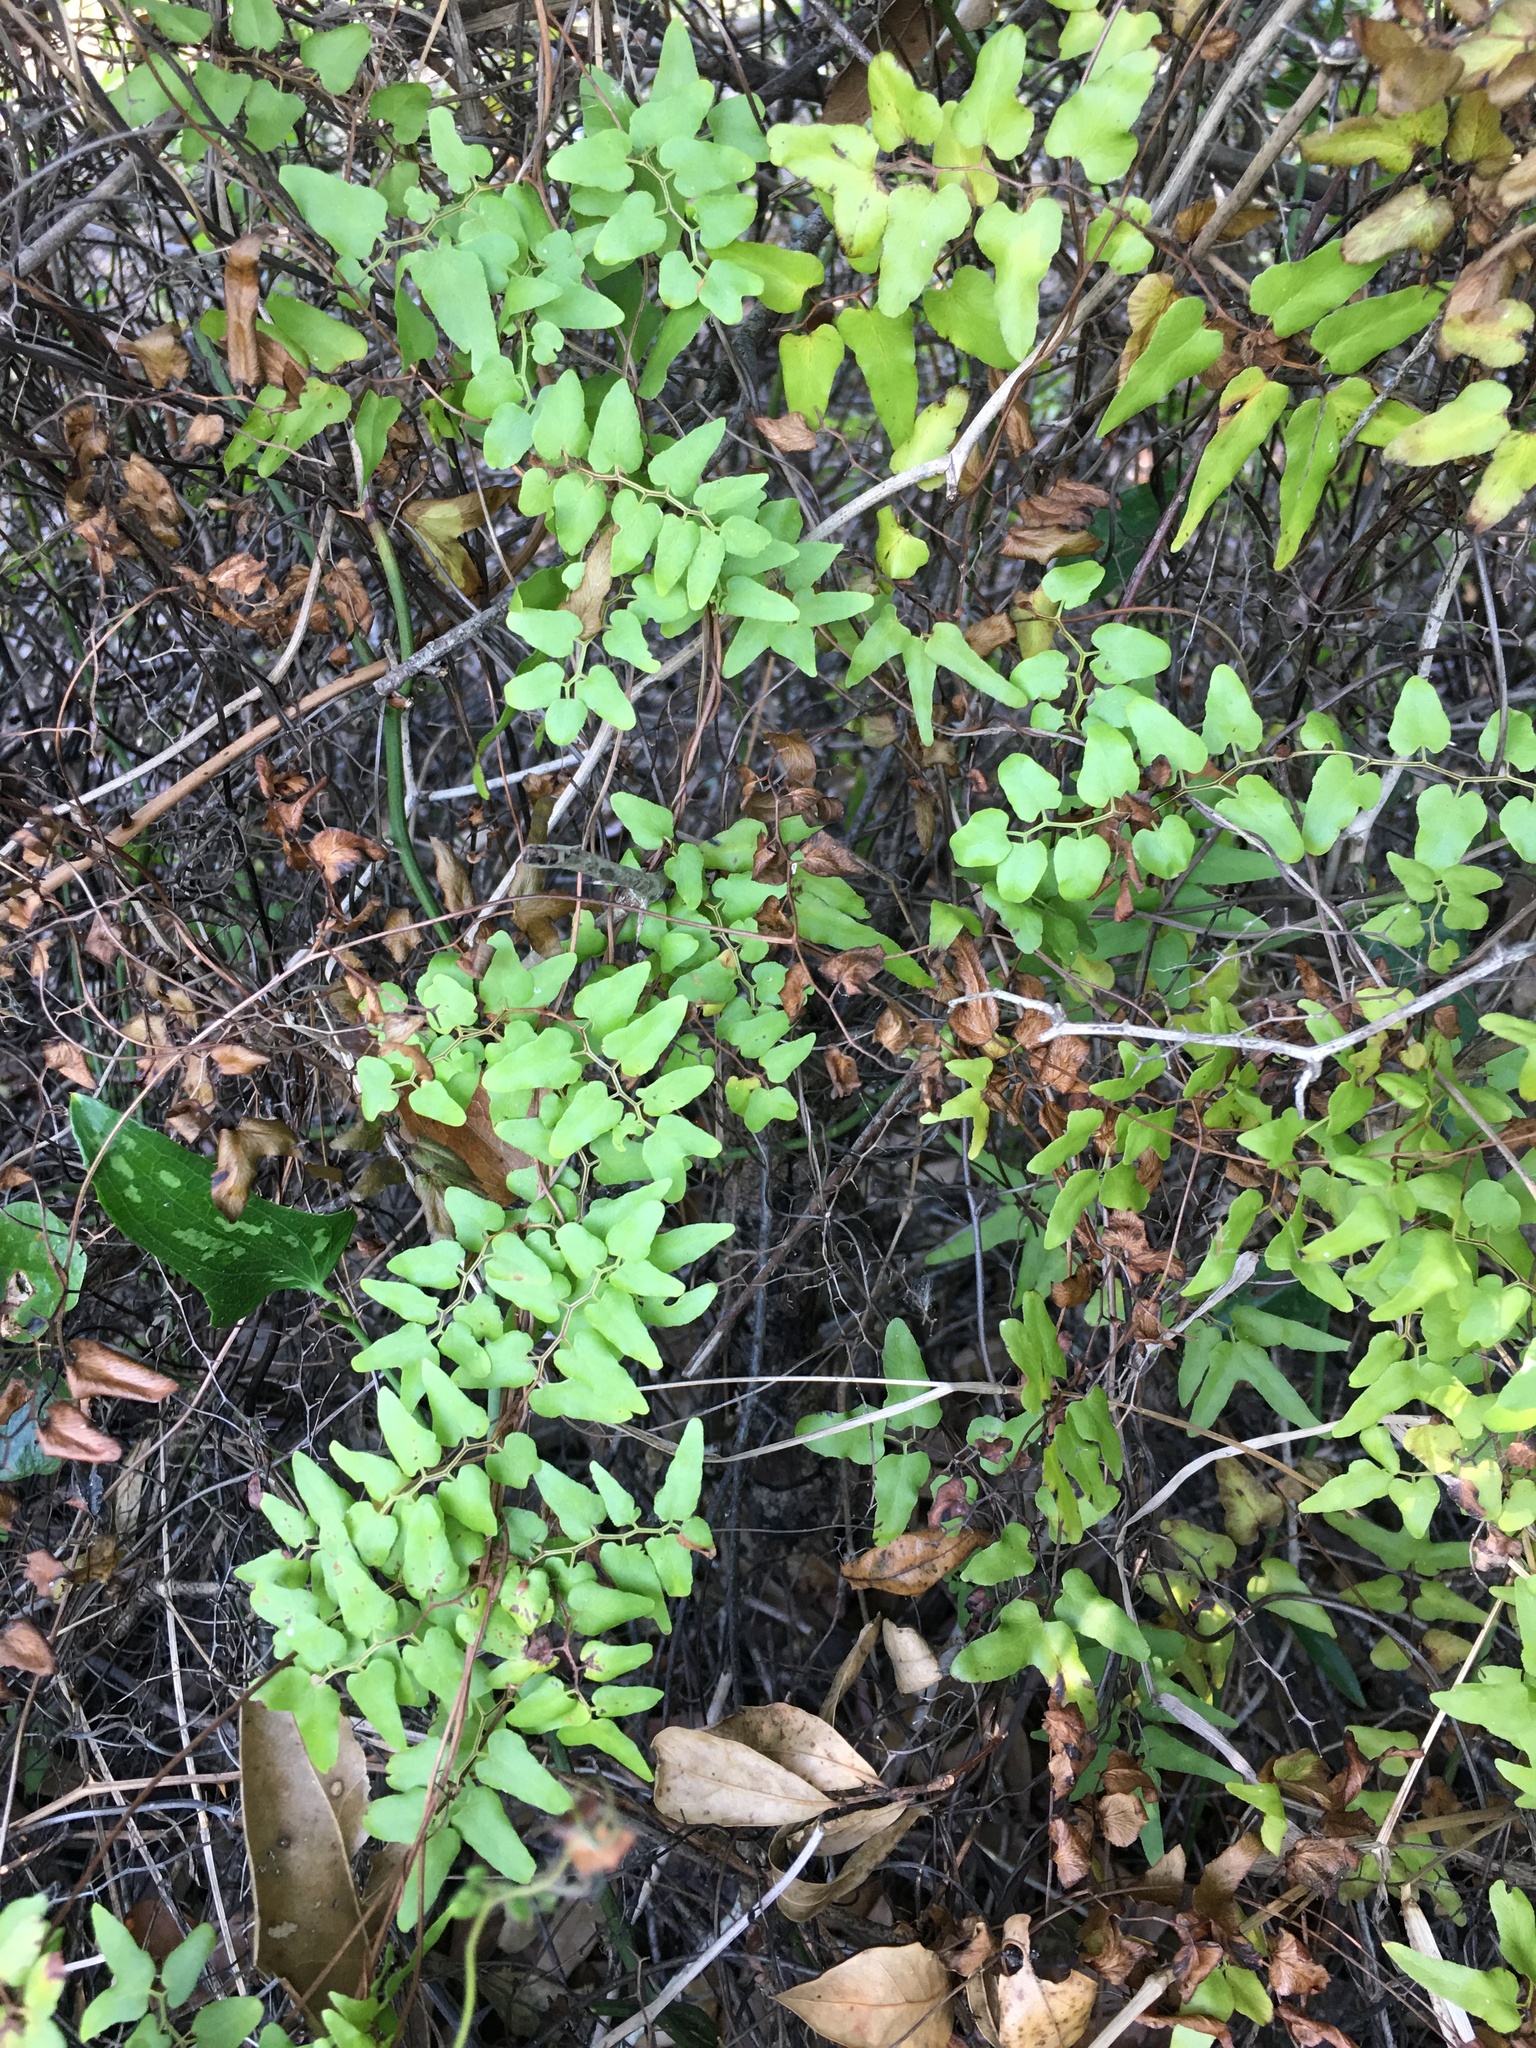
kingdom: Plantae
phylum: Tracheophyta
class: Polypodiopsida
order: Schizaeales
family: Lygodiaceae
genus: Lygodium
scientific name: Lygodium microphyllum
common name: Small-leaf climbing fern
